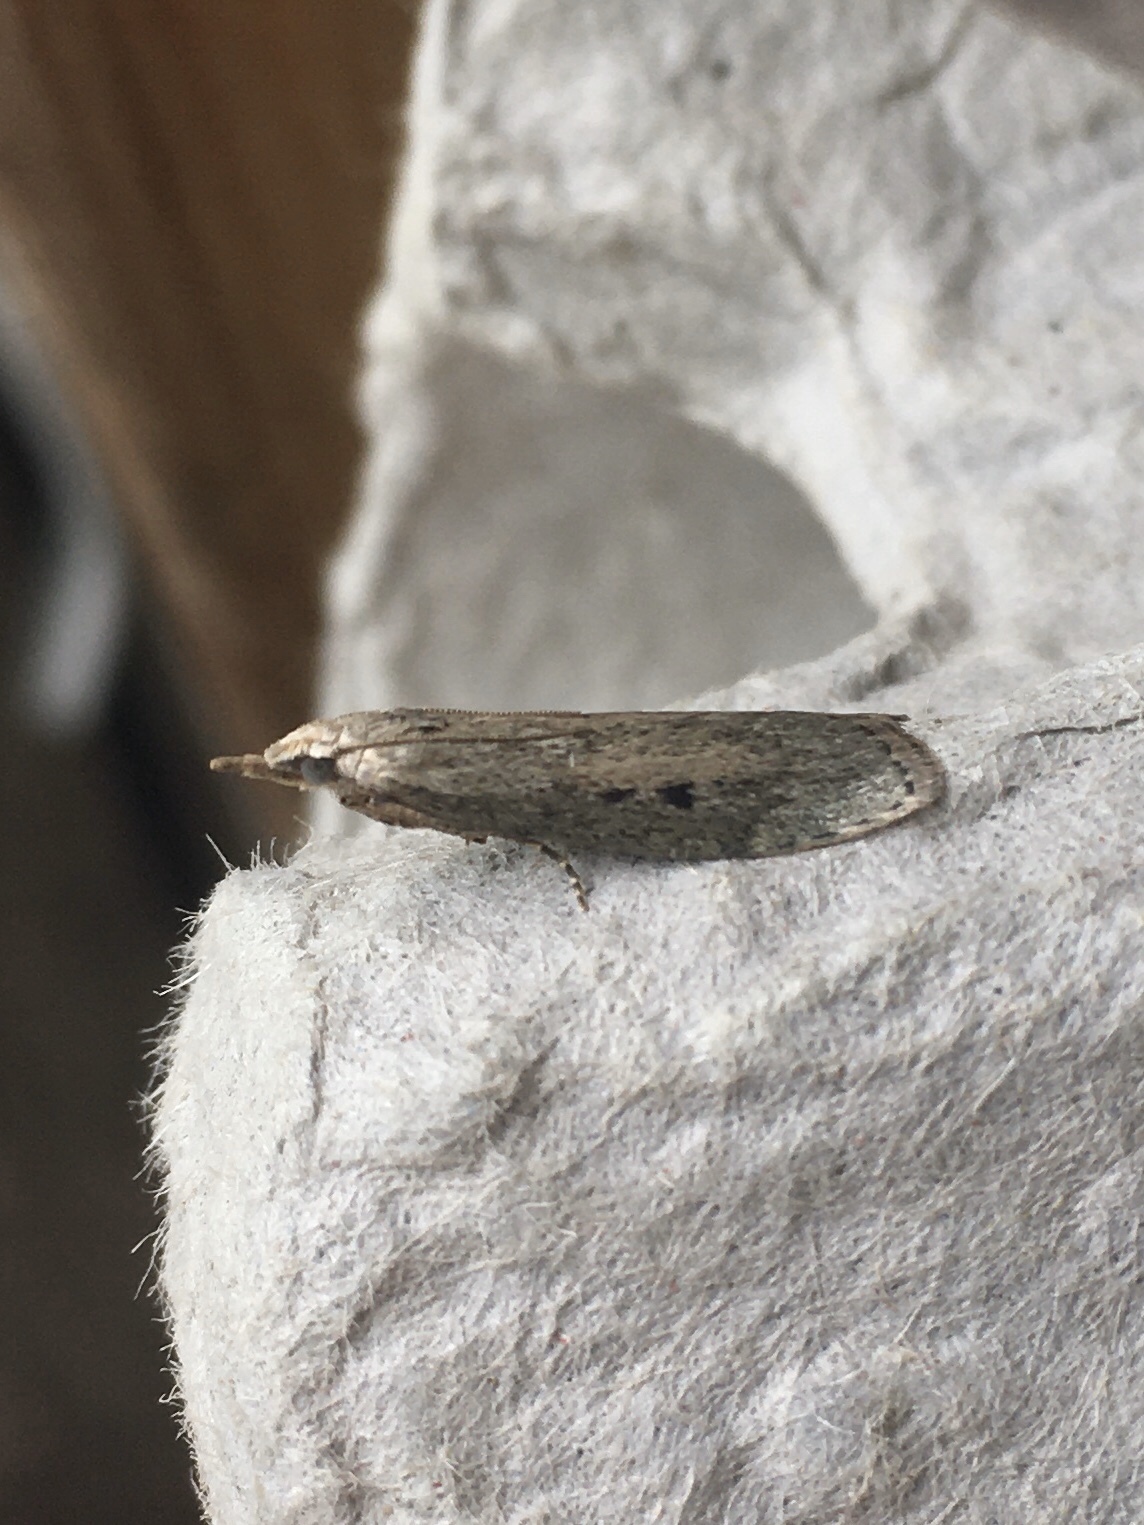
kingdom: Animalia
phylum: Arthropoda
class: Insecta
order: Lepidoptera
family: Pyralidae
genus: Aphomia
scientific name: Aphomia sociella
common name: Bee moth
